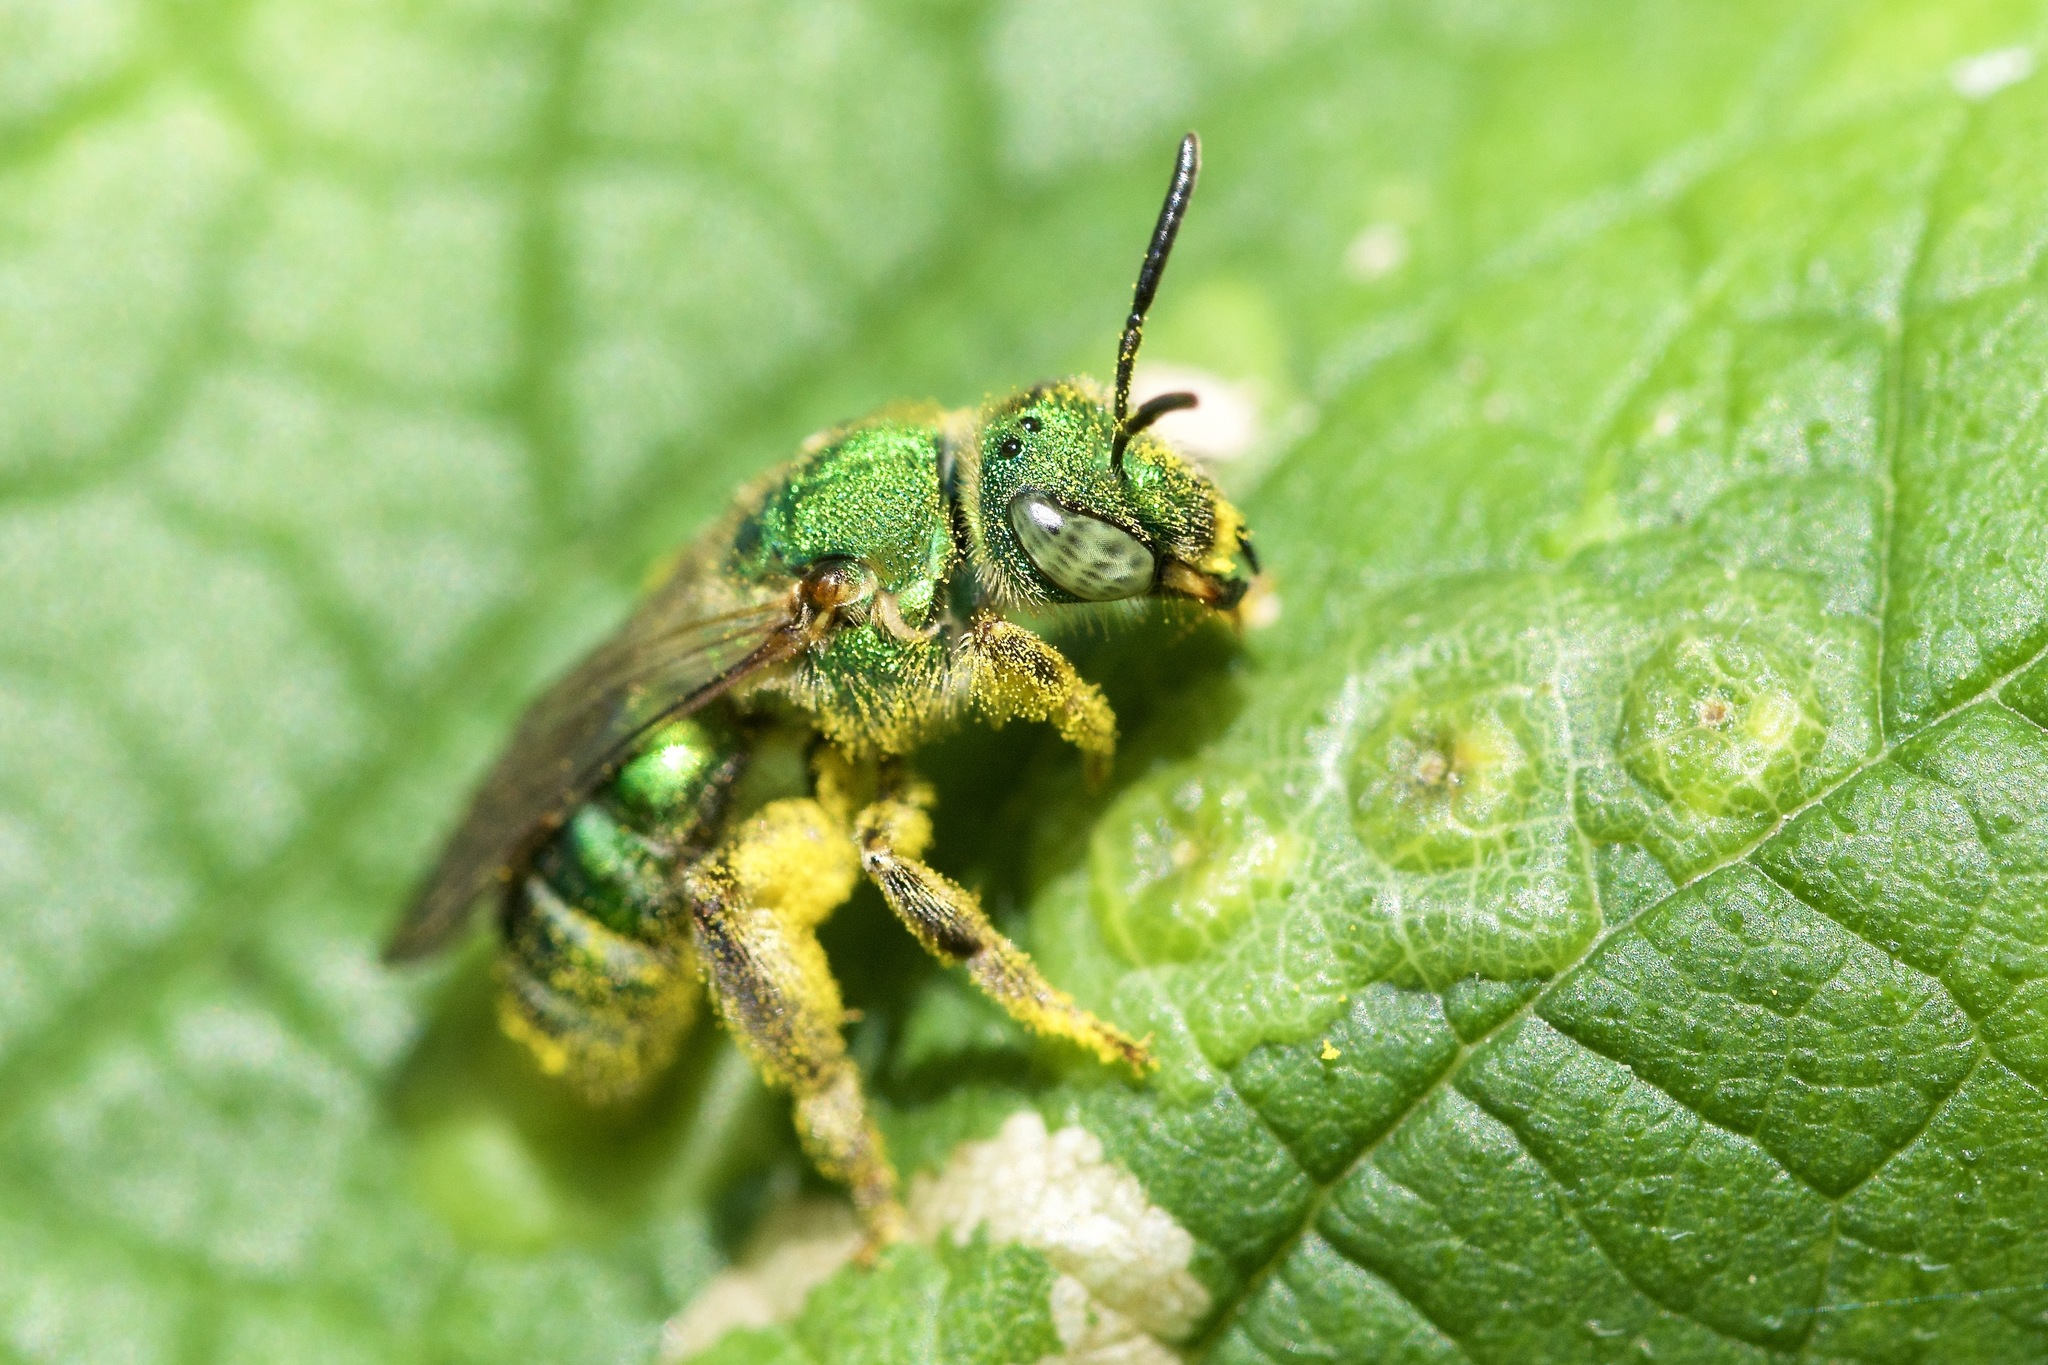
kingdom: Animalia
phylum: Arthropoda
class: Insecta
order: Hymenoptera
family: Halictidae
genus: Agapostemon
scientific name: Agapostemon sericeus
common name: Silky striped sweat bee
